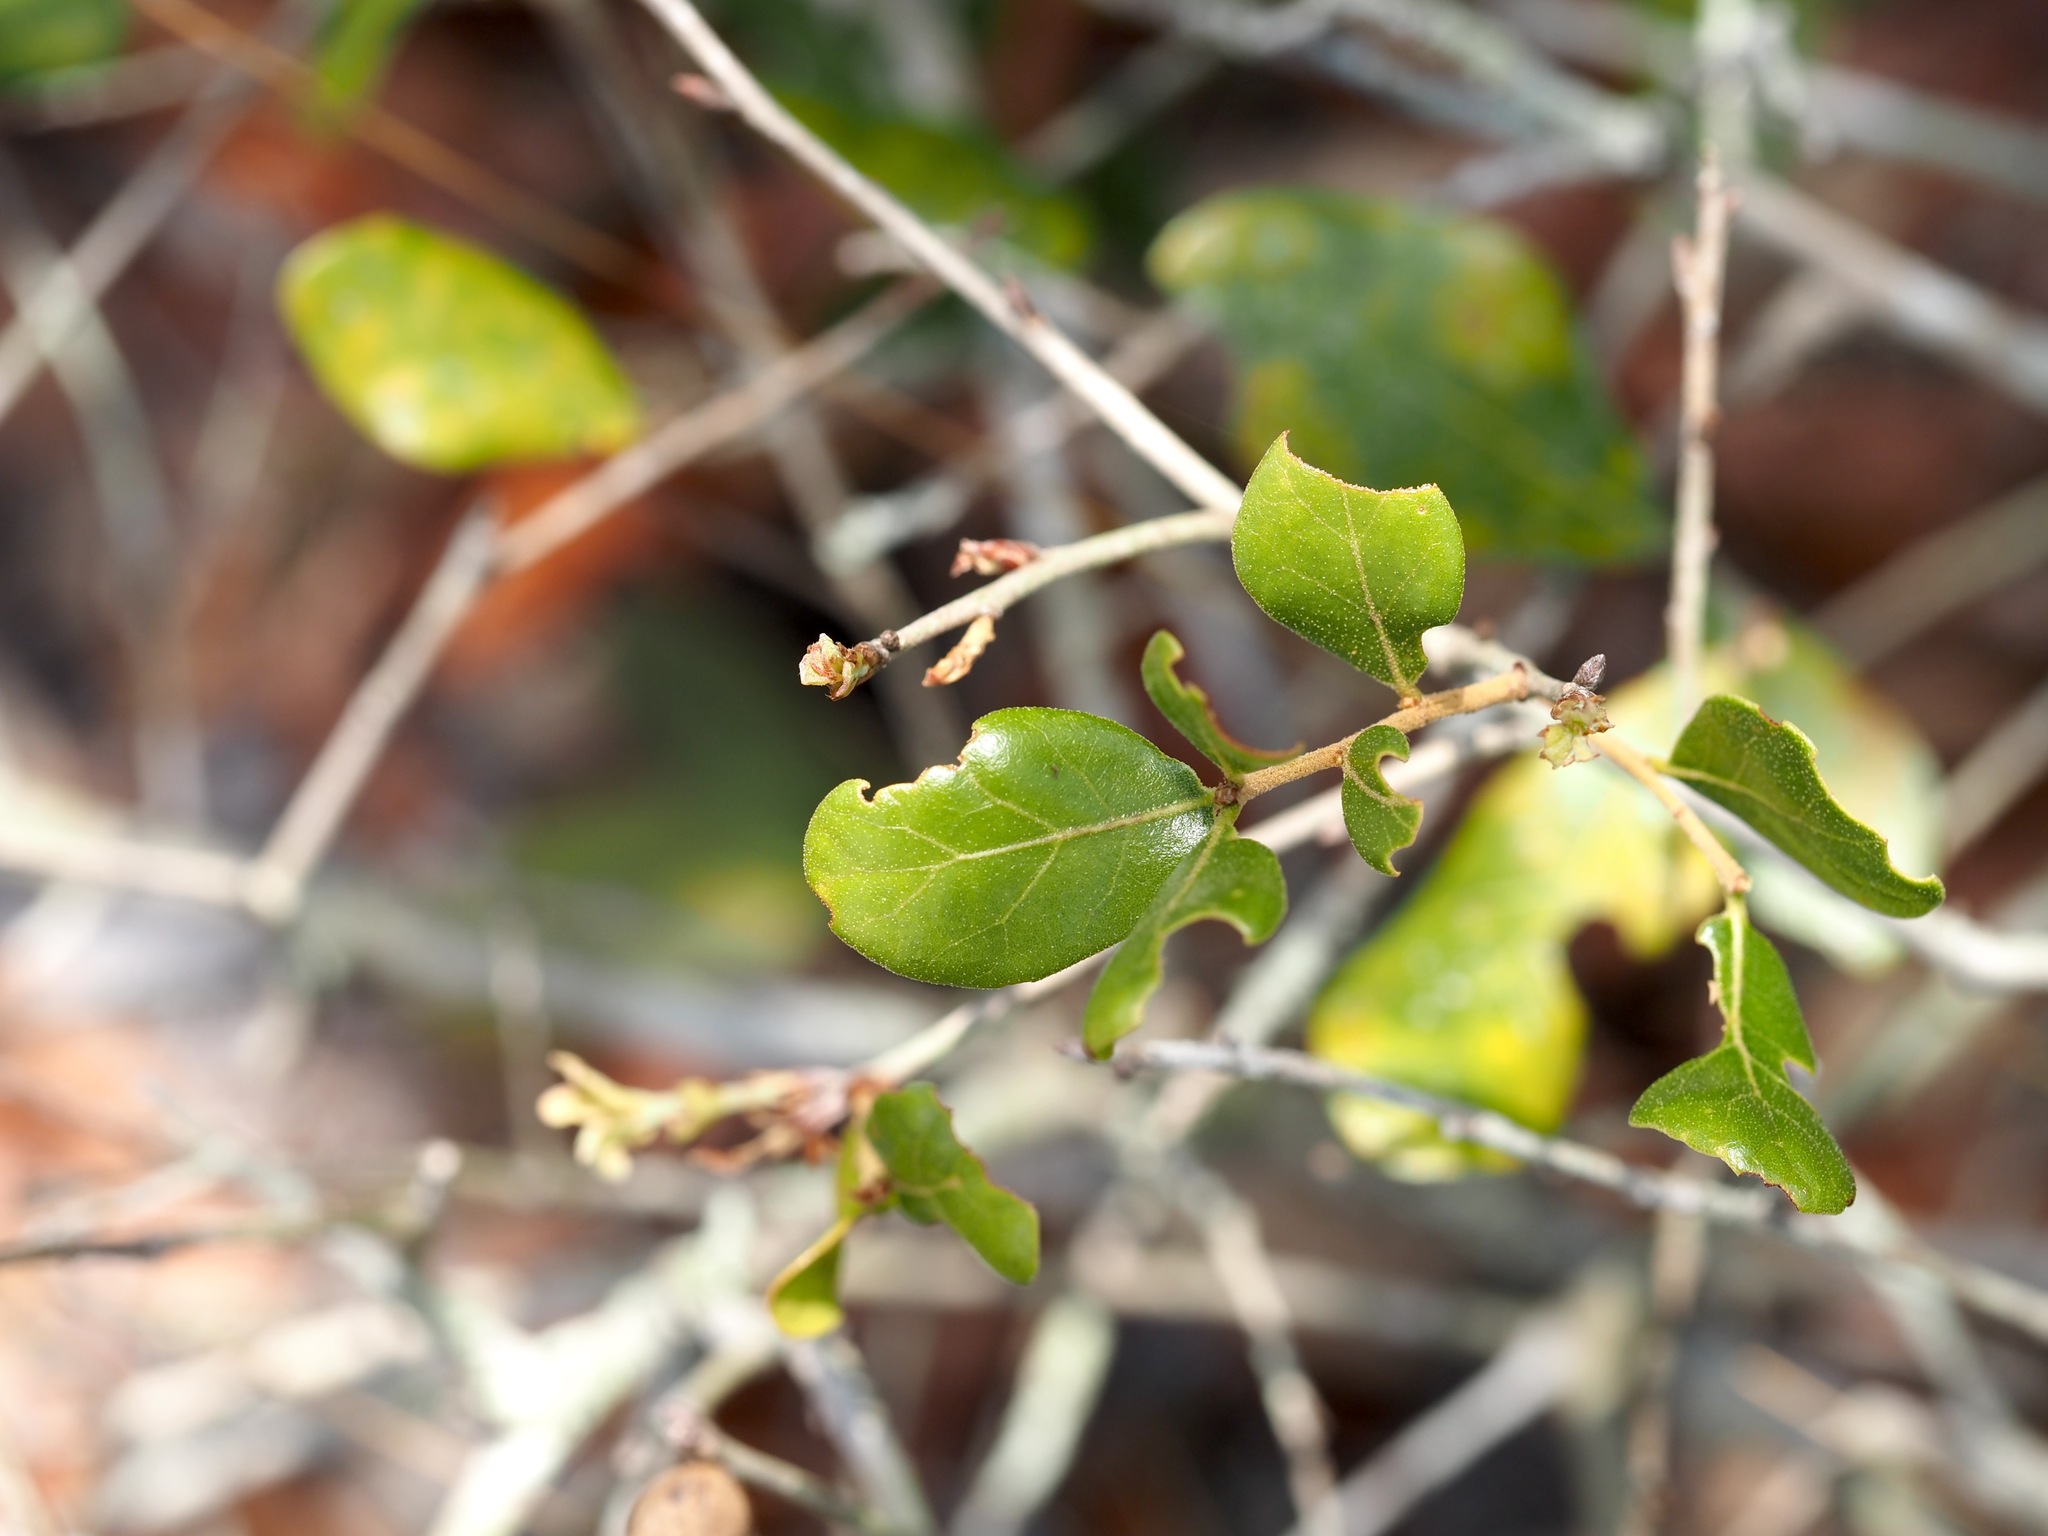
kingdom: Plantae
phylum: Tracheophyta
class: Magnoliopsida
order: Fagales
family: Fagaceae
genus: Quercus
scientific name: Quercus myrtifolia
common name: Myrtle oak
